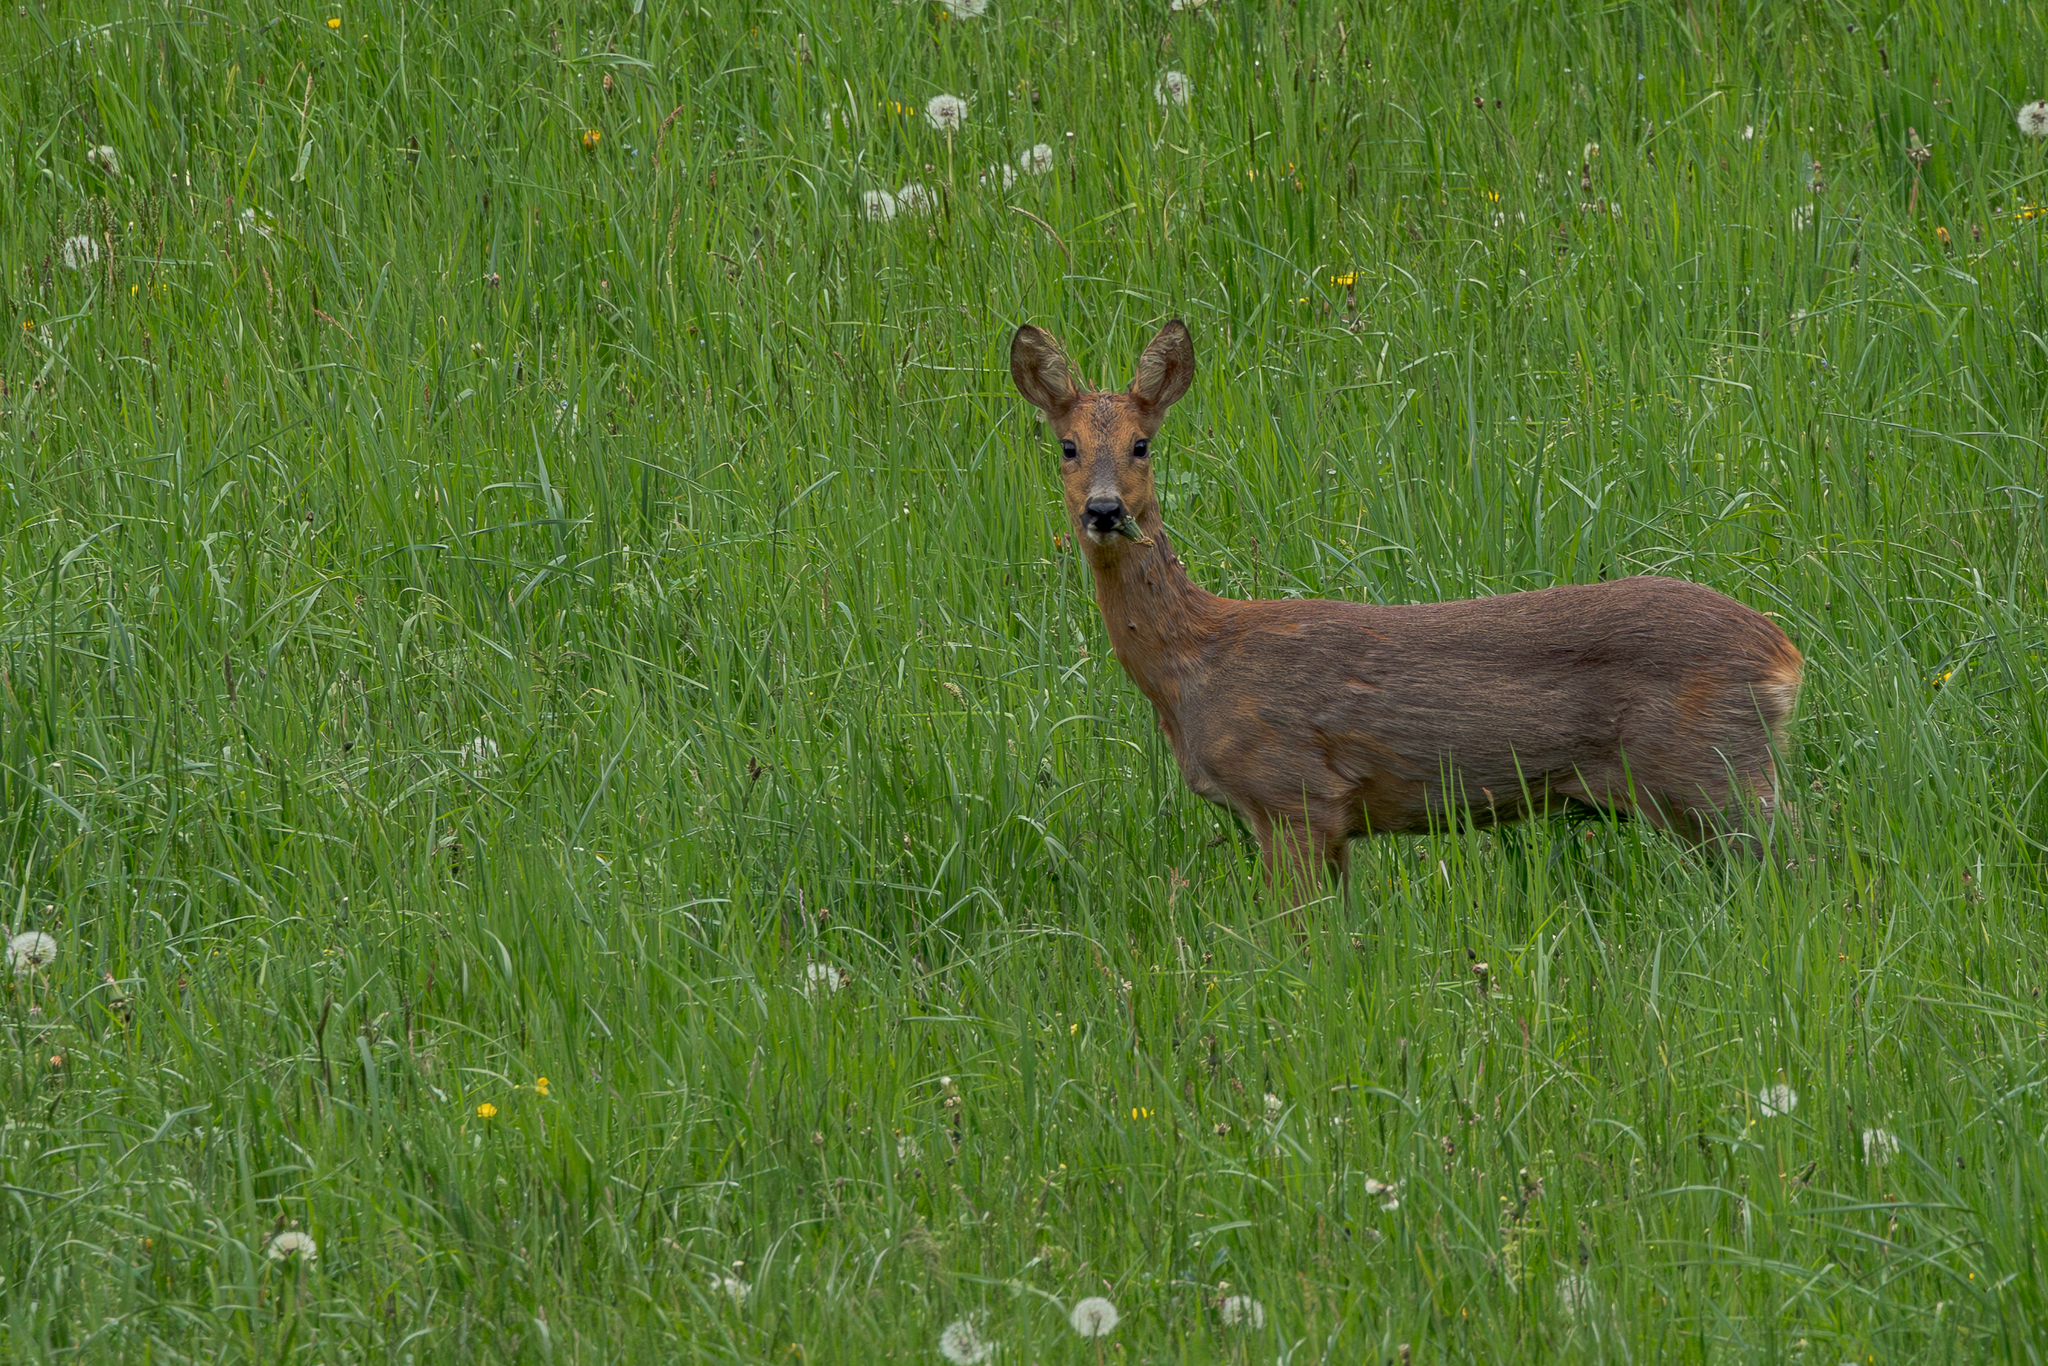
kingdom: Animalia
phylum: Chordata
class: Mammalia
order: Artiodactyla
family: Cervidae
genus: Capreolus
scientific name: Capreolus capreolus
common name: Western roe deer
